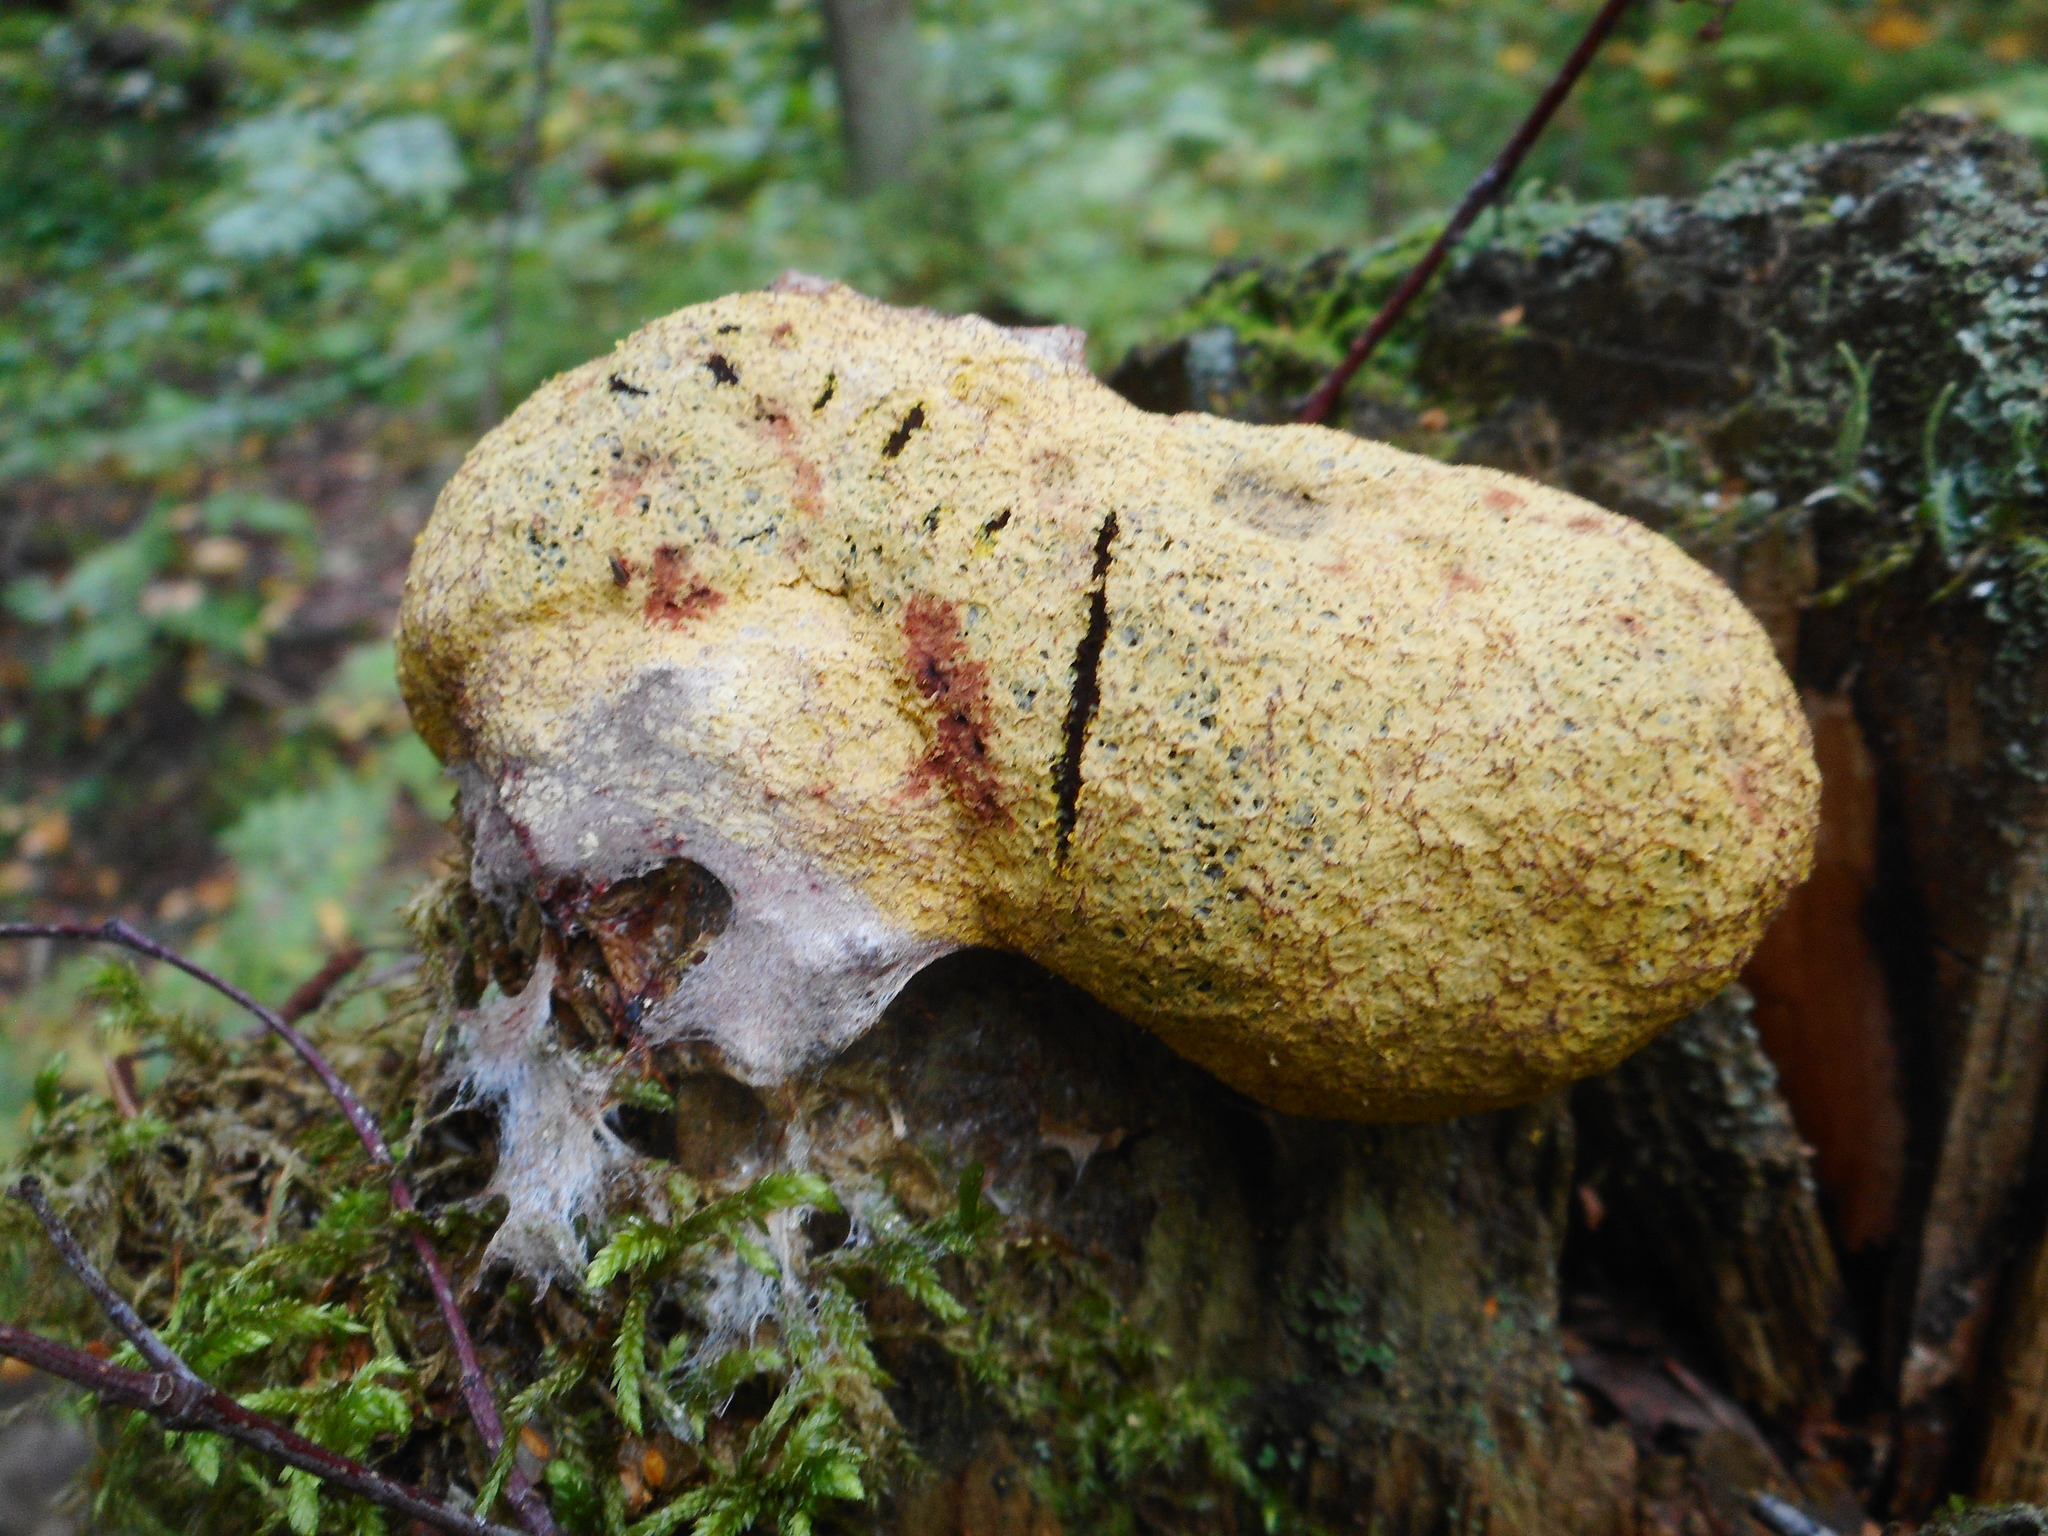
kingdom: Protozoa
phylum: Mycetozoa
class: Myxomycetes
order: Physarales
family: Physaraceae
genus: Fuligo
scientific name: Fuligo septica
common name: Dog vomit slime mold
